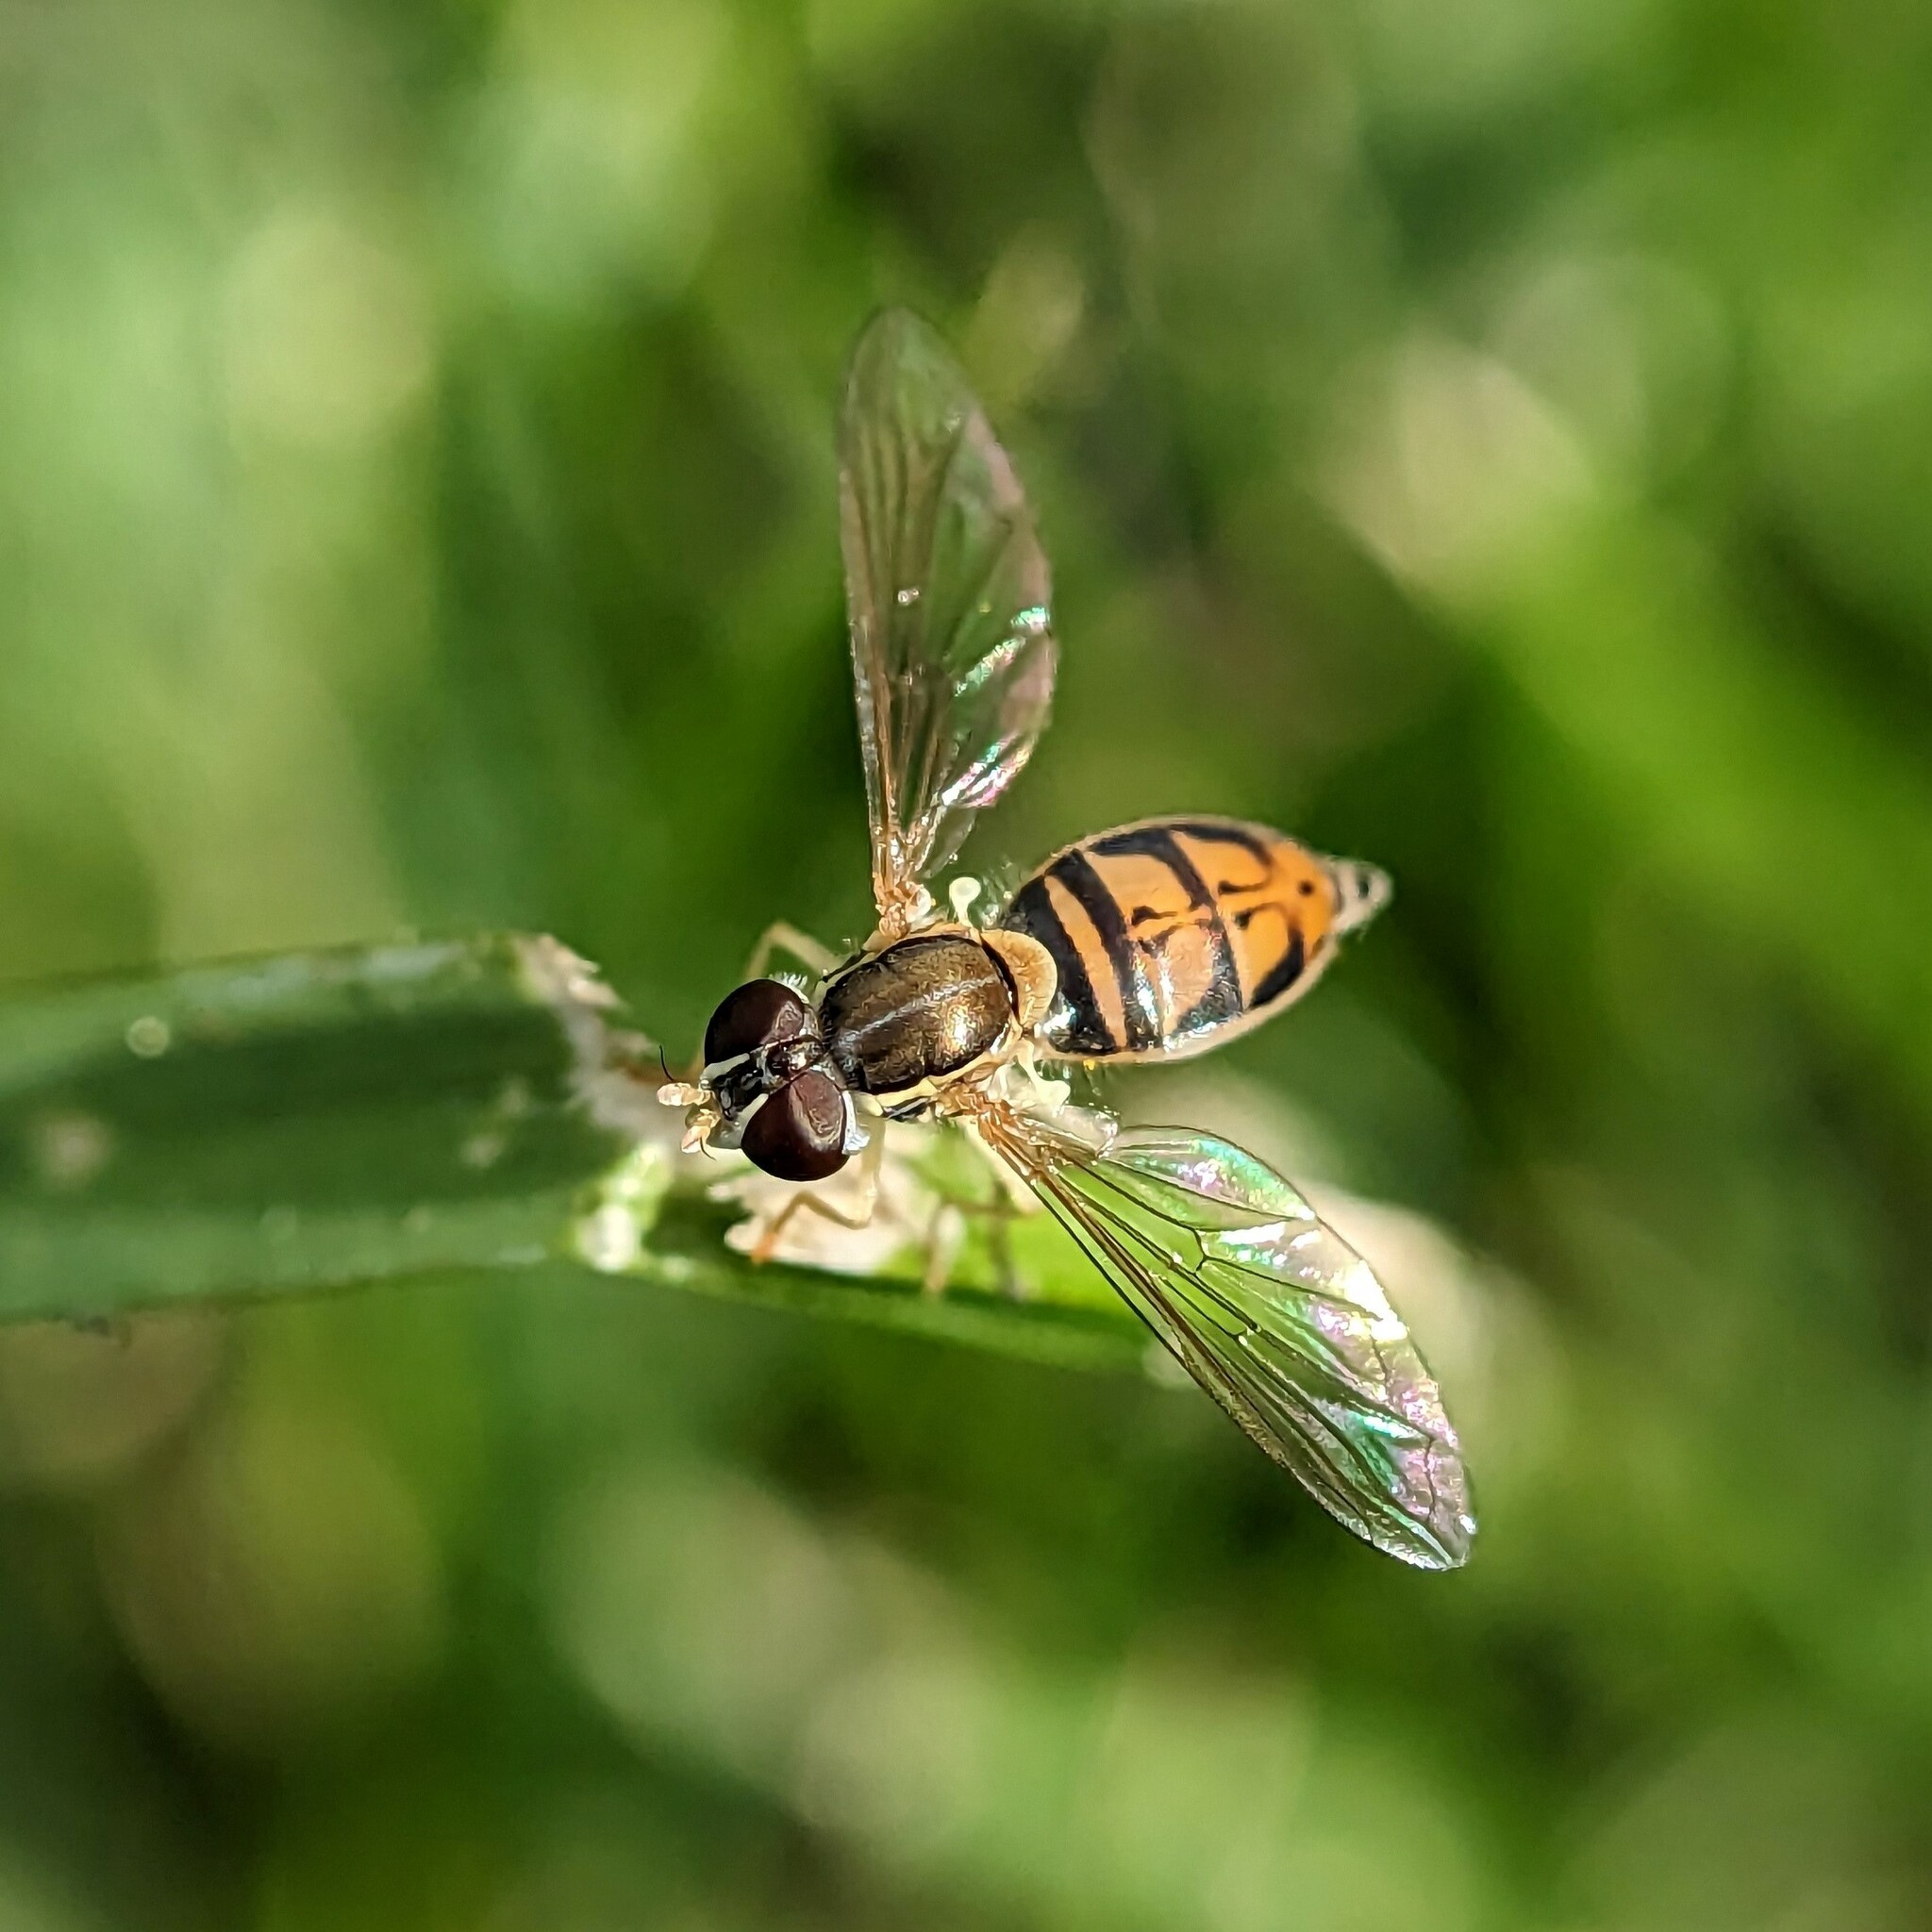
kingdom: Animalia
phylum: Arthropoda
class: Insecta
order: Diptera
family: Syrphidae
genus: Toxomerus
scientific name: Toxomerus marginatus
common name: Syrphid fly
